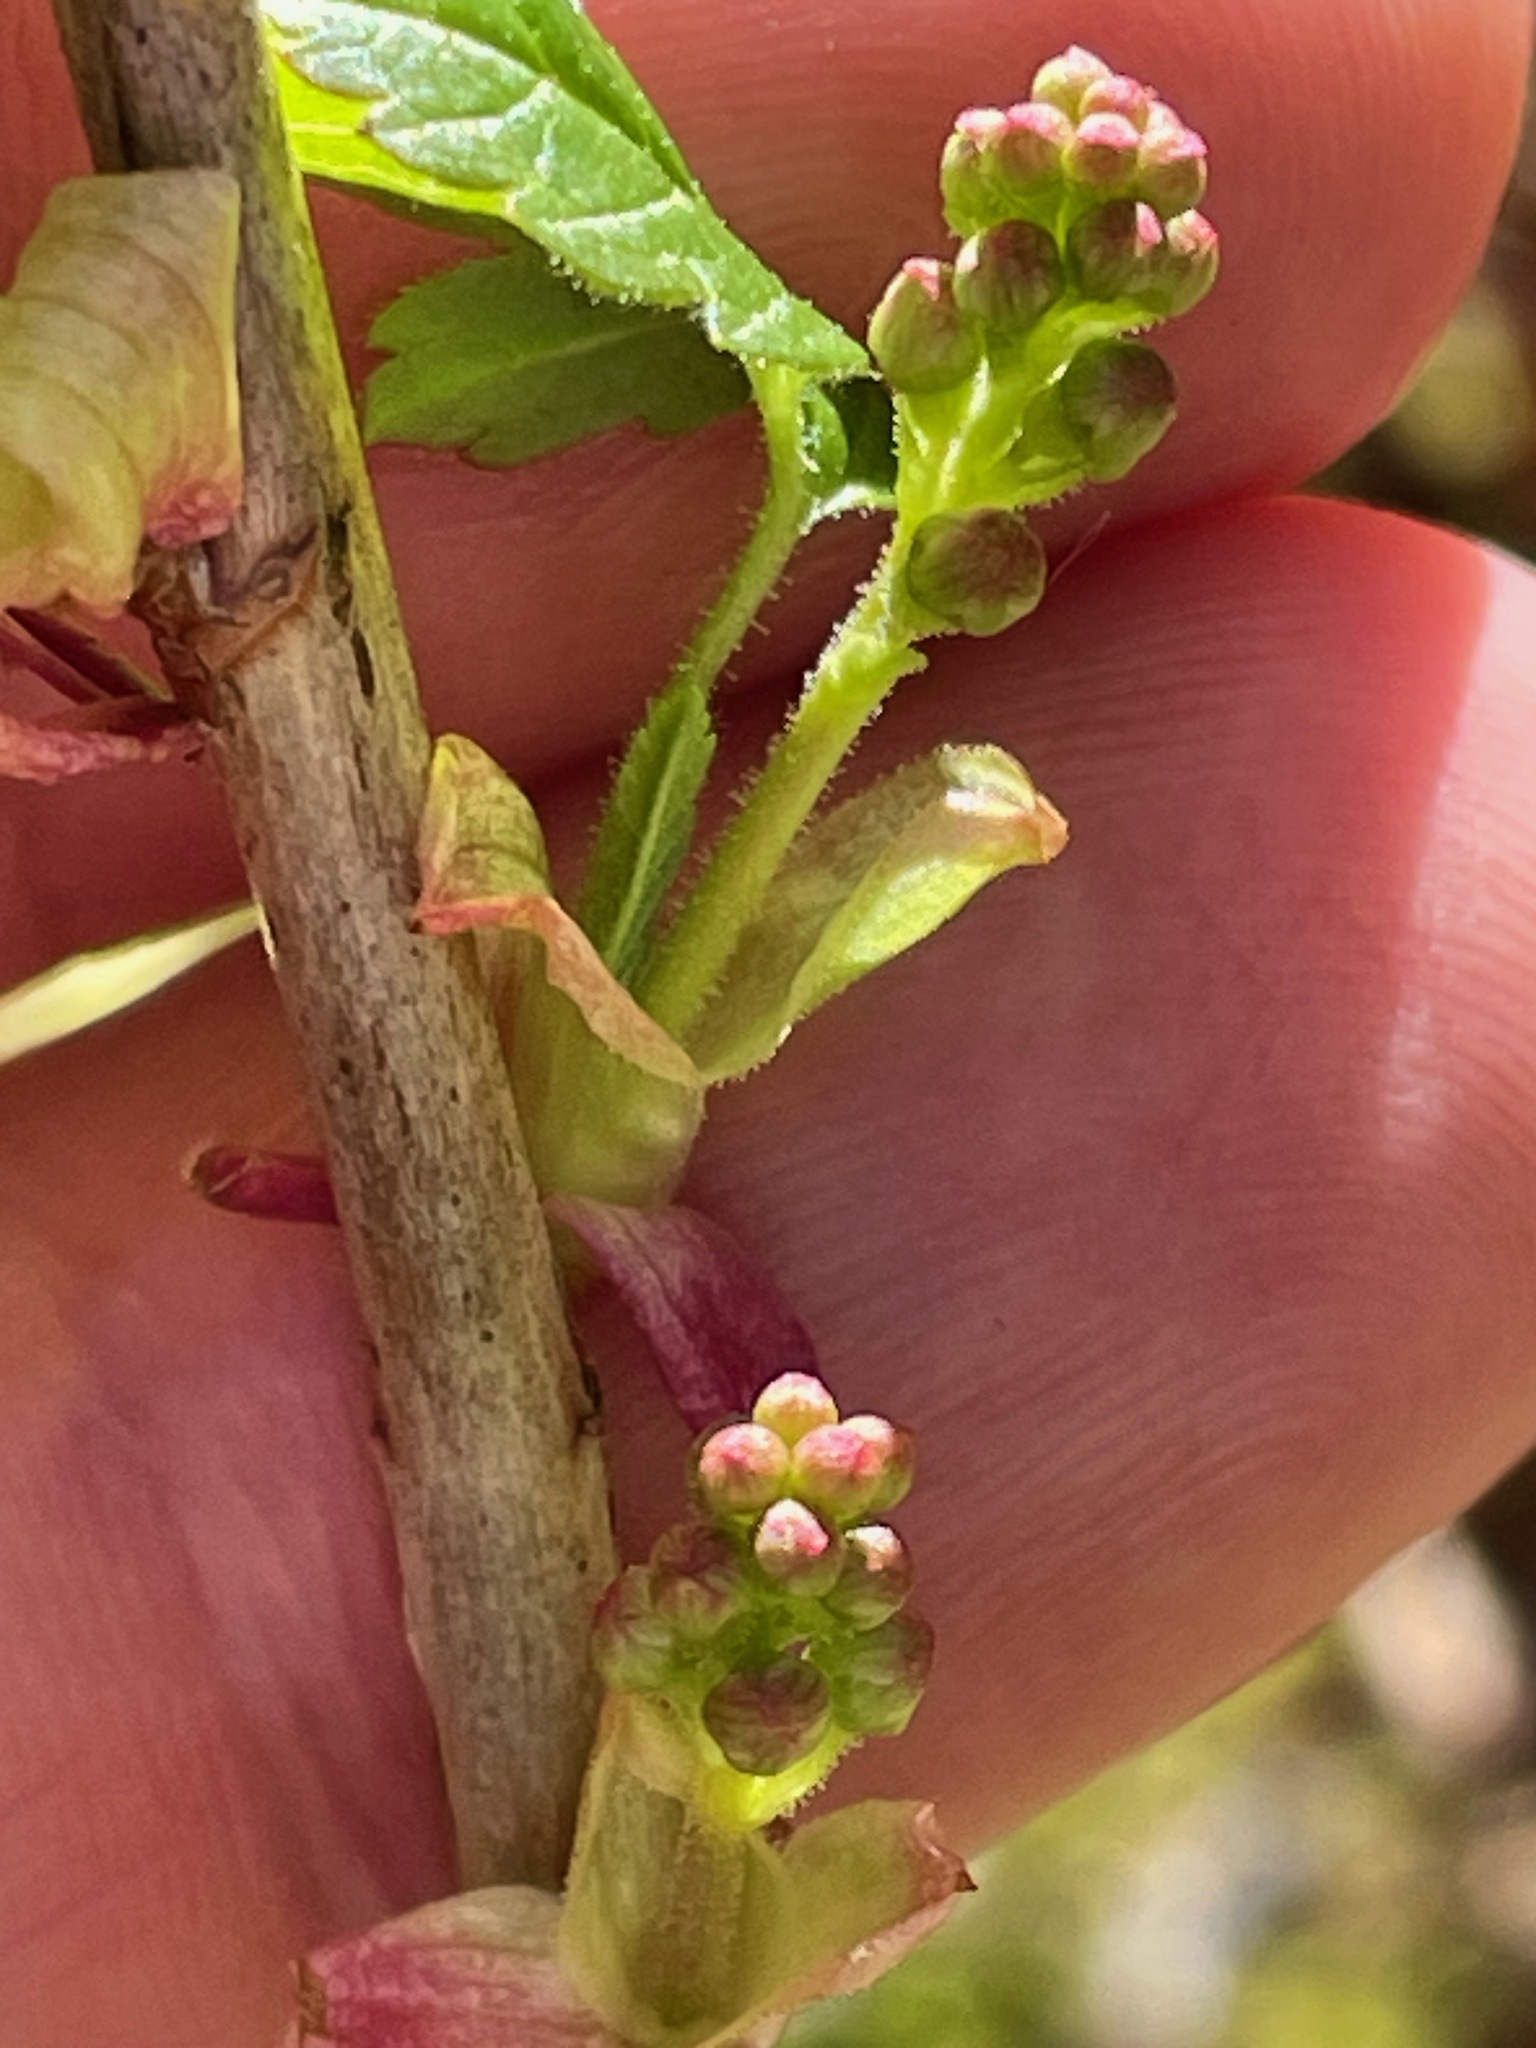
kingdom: Plantae
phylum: Tracheophyta
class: Magnoliopsida
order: Saxifragales
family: Grossulariaceae
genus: Ribes
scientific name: Ribes glandulosum
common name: Skunk currant
